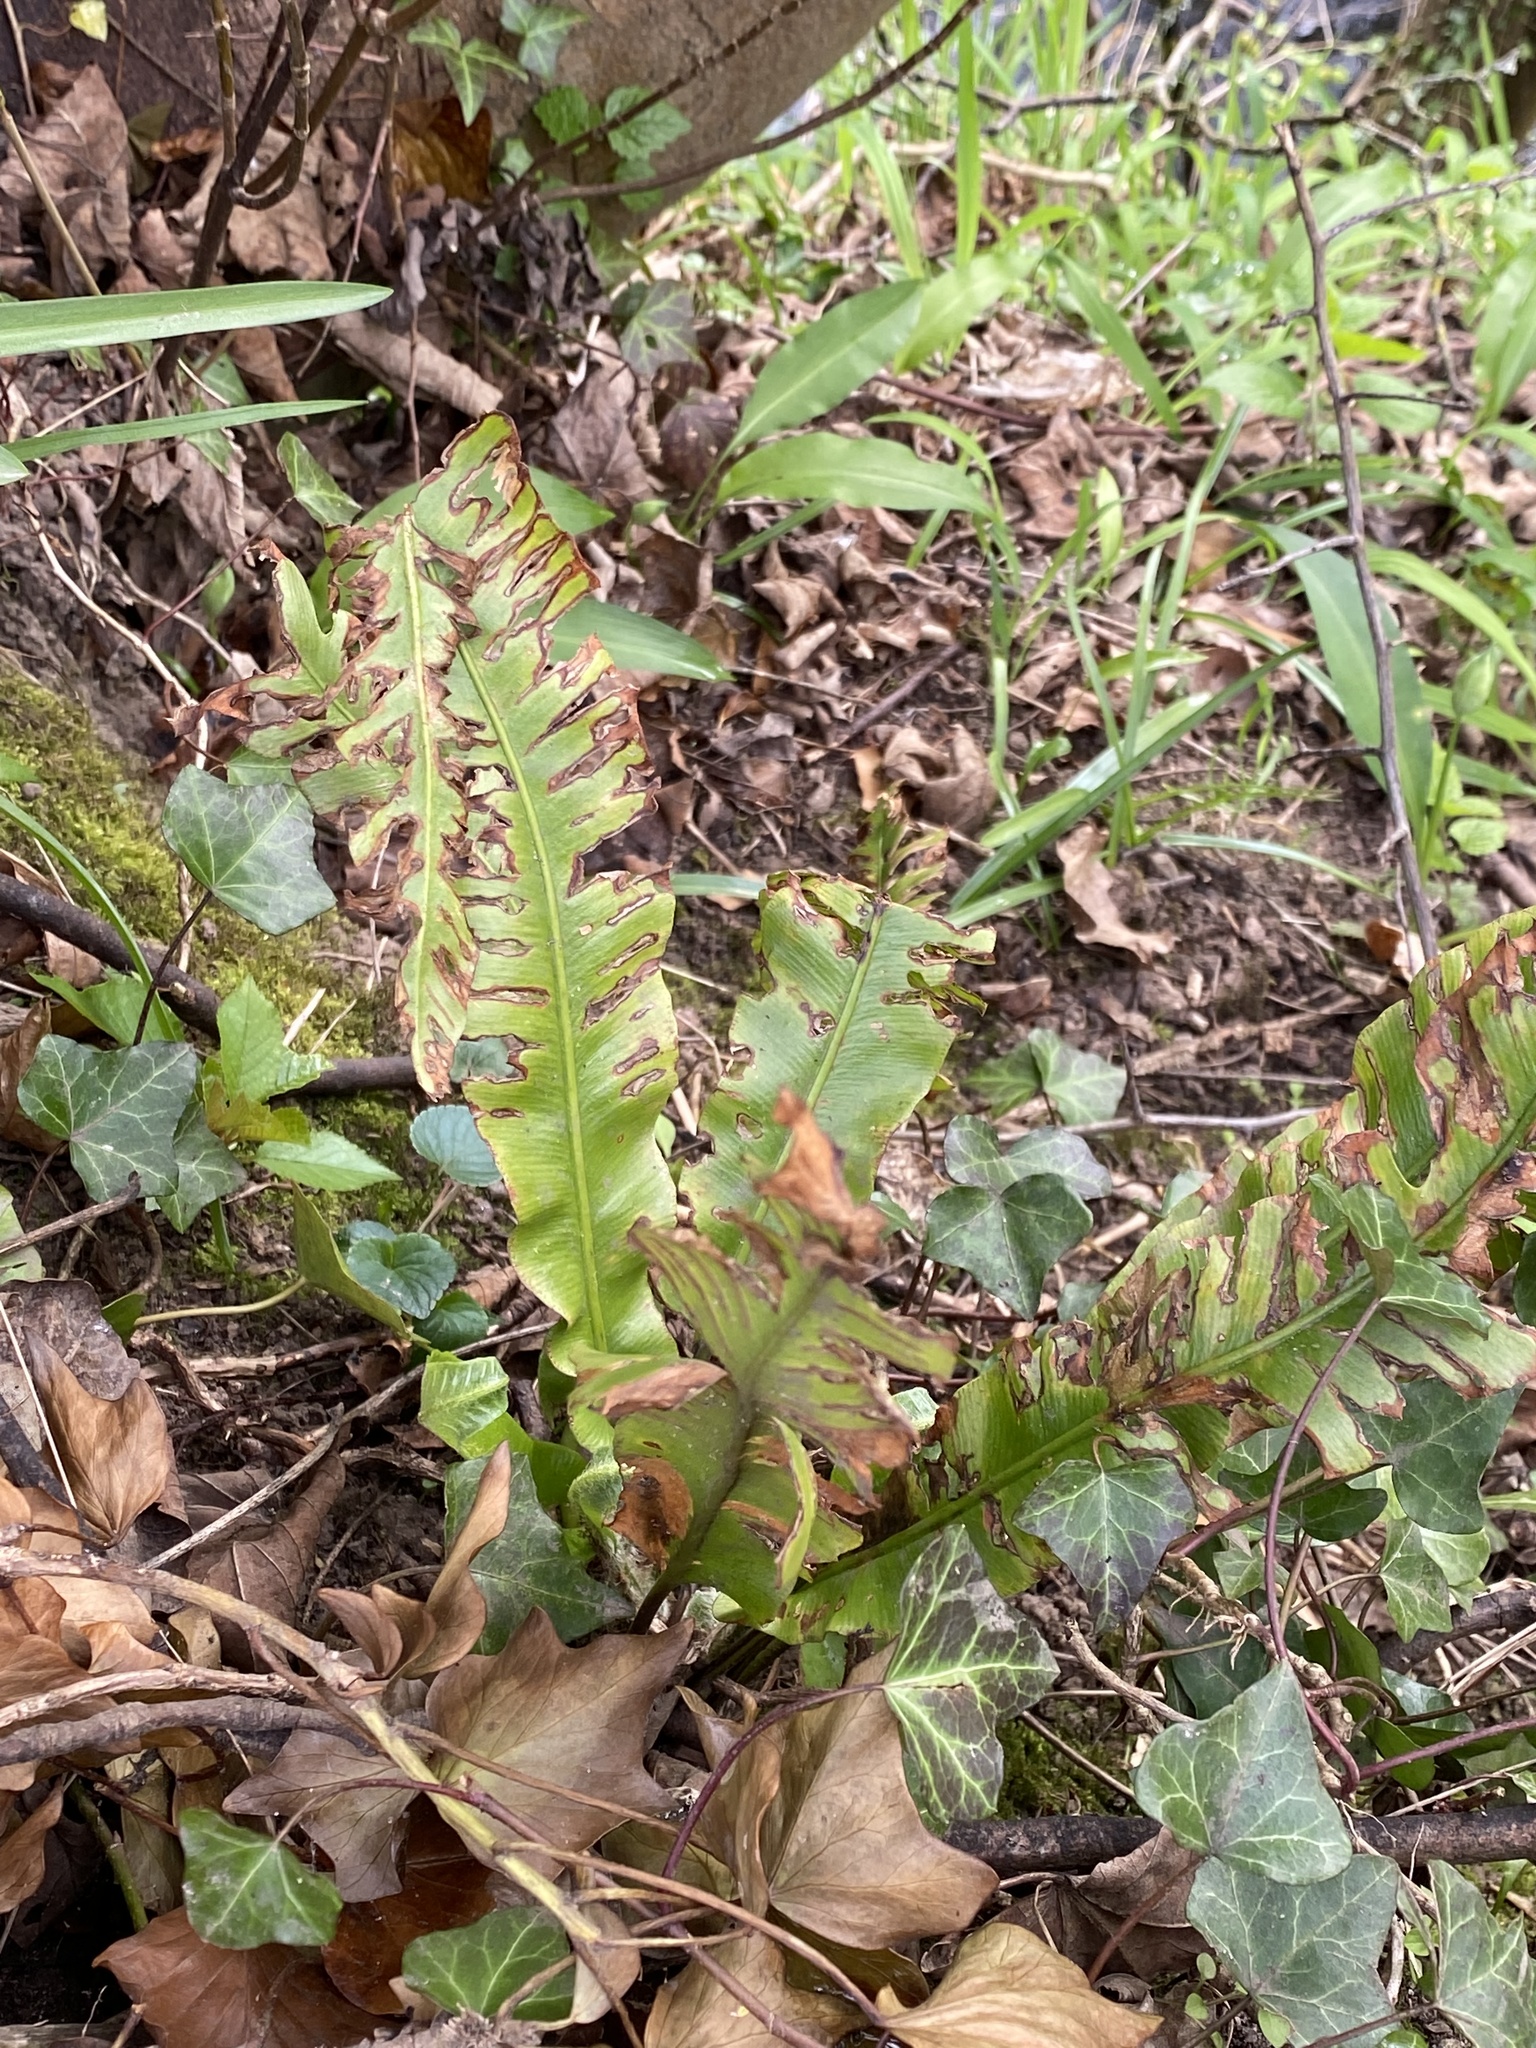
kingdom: Plantae
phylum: Tracheophyta
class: Polypodiopsida
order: Polypodiales
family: Aspleniaceae
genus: Asplenium
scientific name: Asplenium scolopendrium
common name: Hart's-tongue fern
